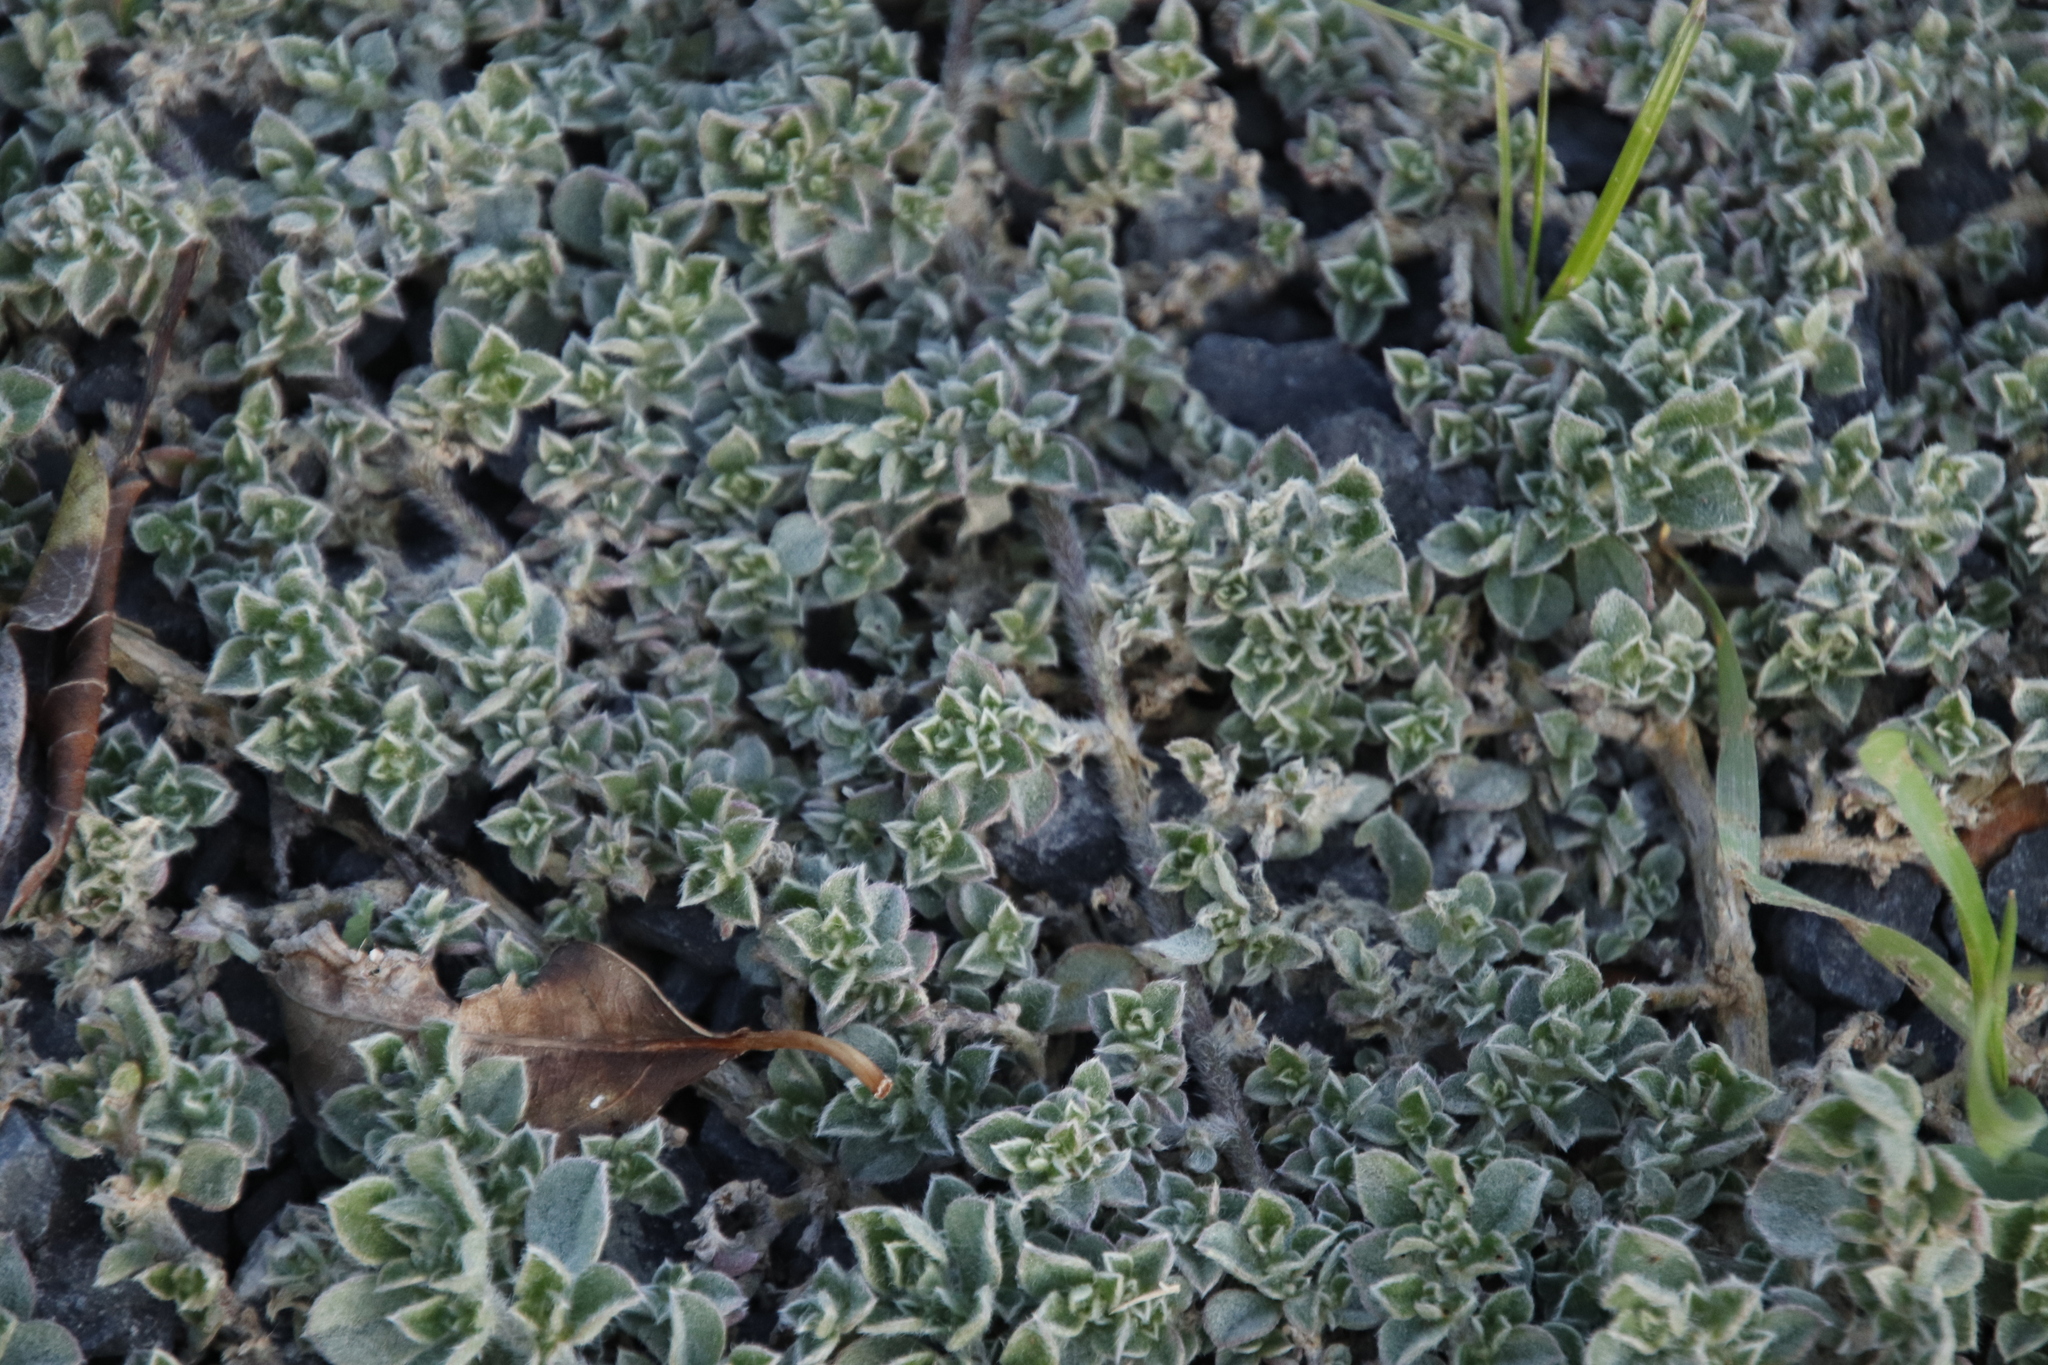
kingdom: Plantae
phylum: Tracheophyta
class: Magnoliopsida
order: Caryophyllales
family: Aizoaceae
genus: Aizoon
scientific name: Aizoon secundum
